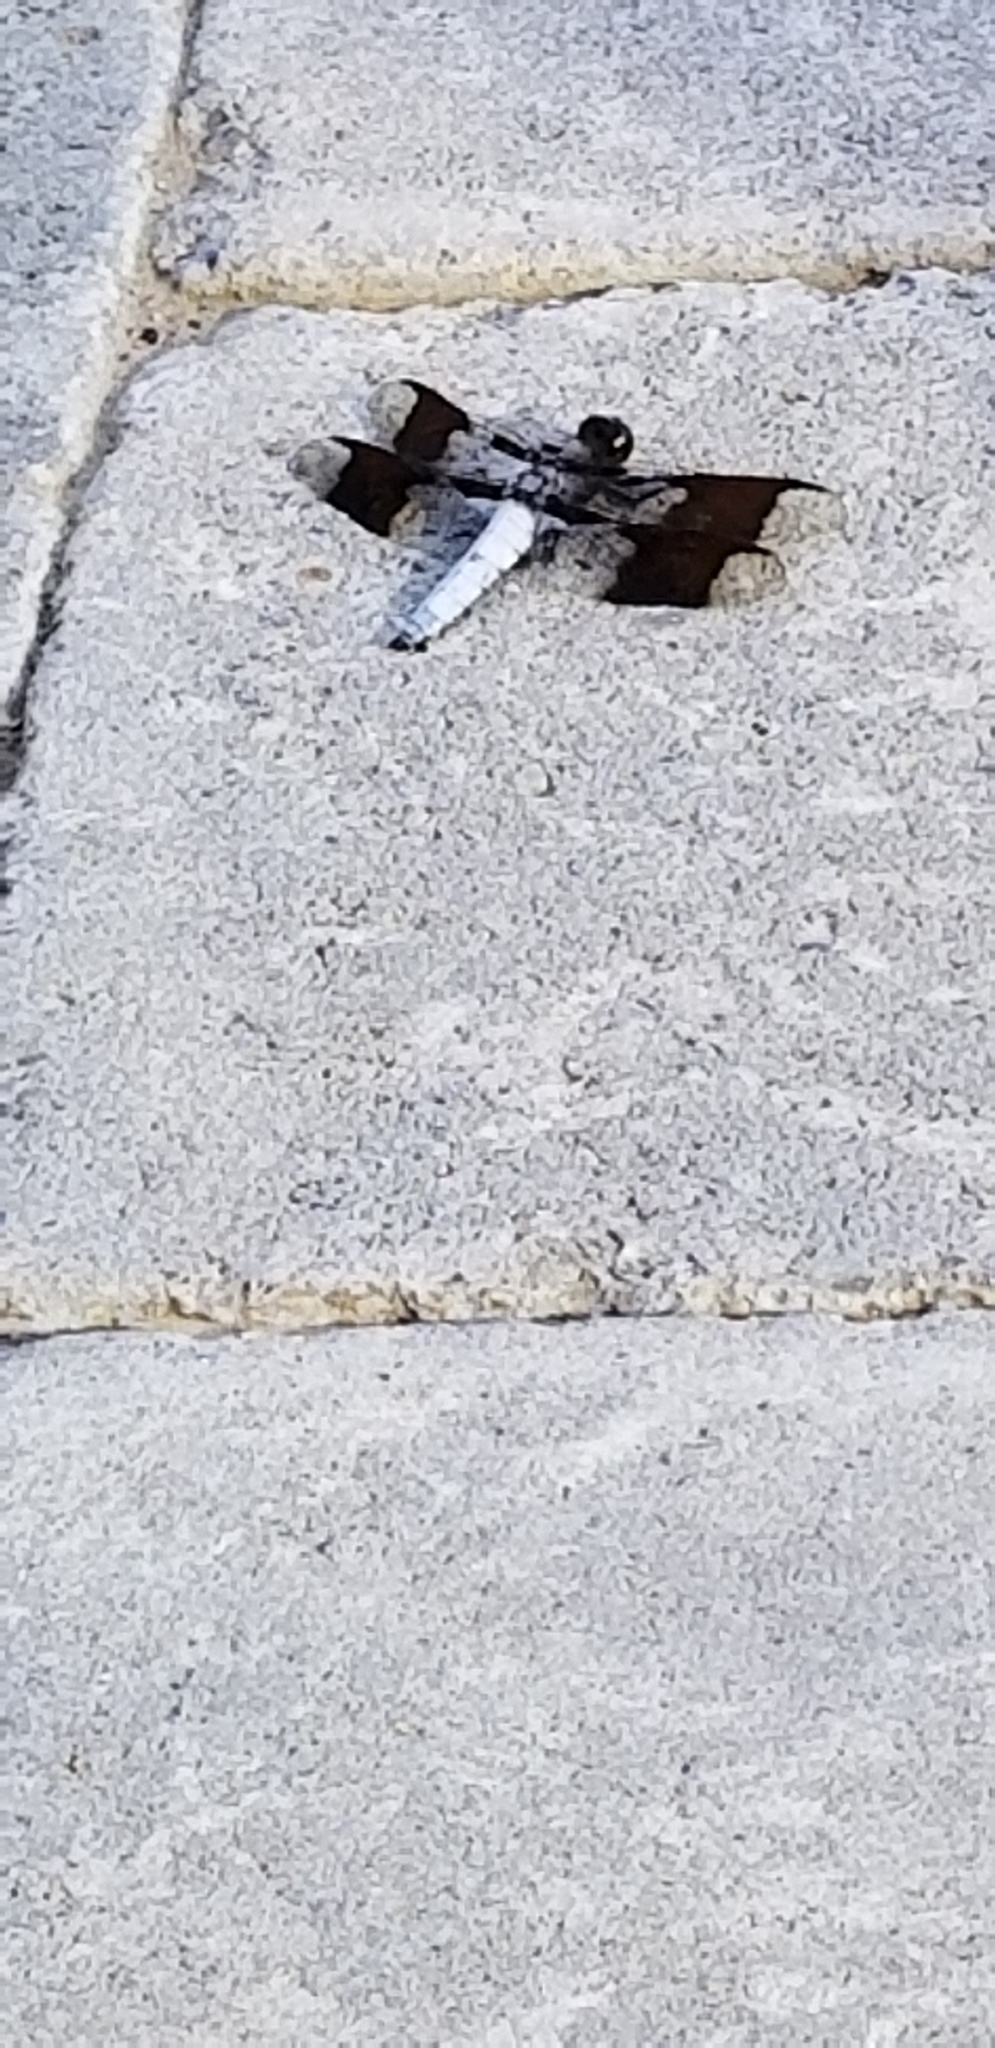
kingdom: Animalia
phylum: Arthropoda
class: Insecta
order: Odonata
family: Libellulidae
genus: Plathemis
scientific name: Plathemis lydia
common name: Common whitetail
